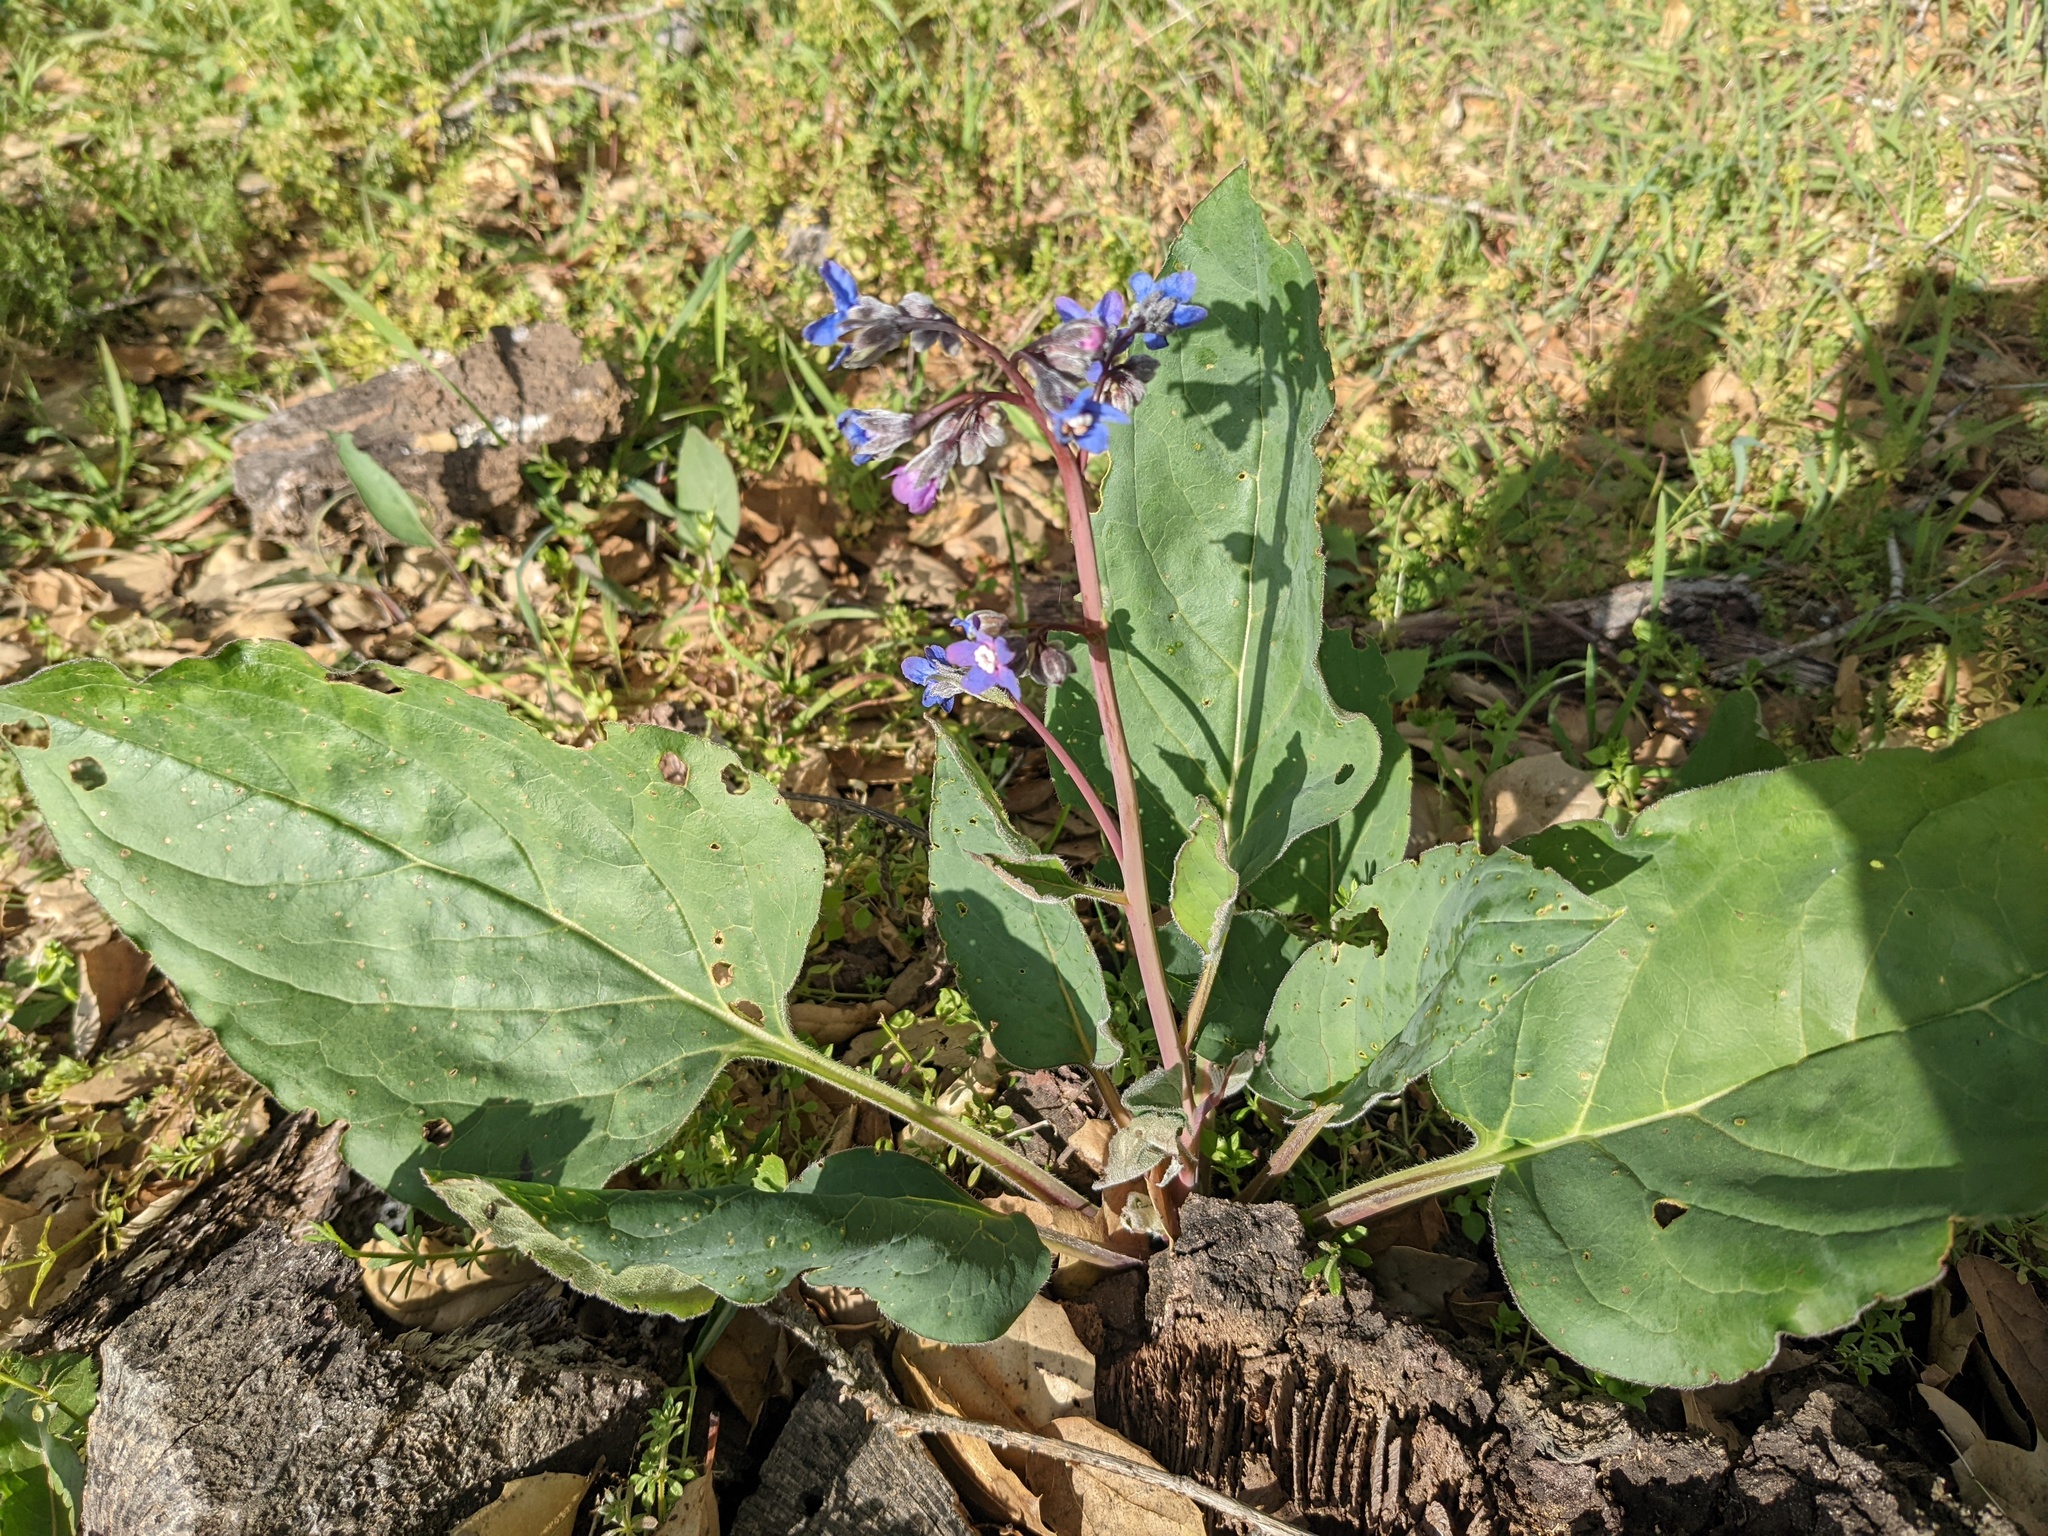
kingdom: Plantae
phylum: Tracheophyta
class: Magnoliopsida
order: Boraginales
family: Boraginaceae
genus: Adelinia
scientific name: Adelinia grande
